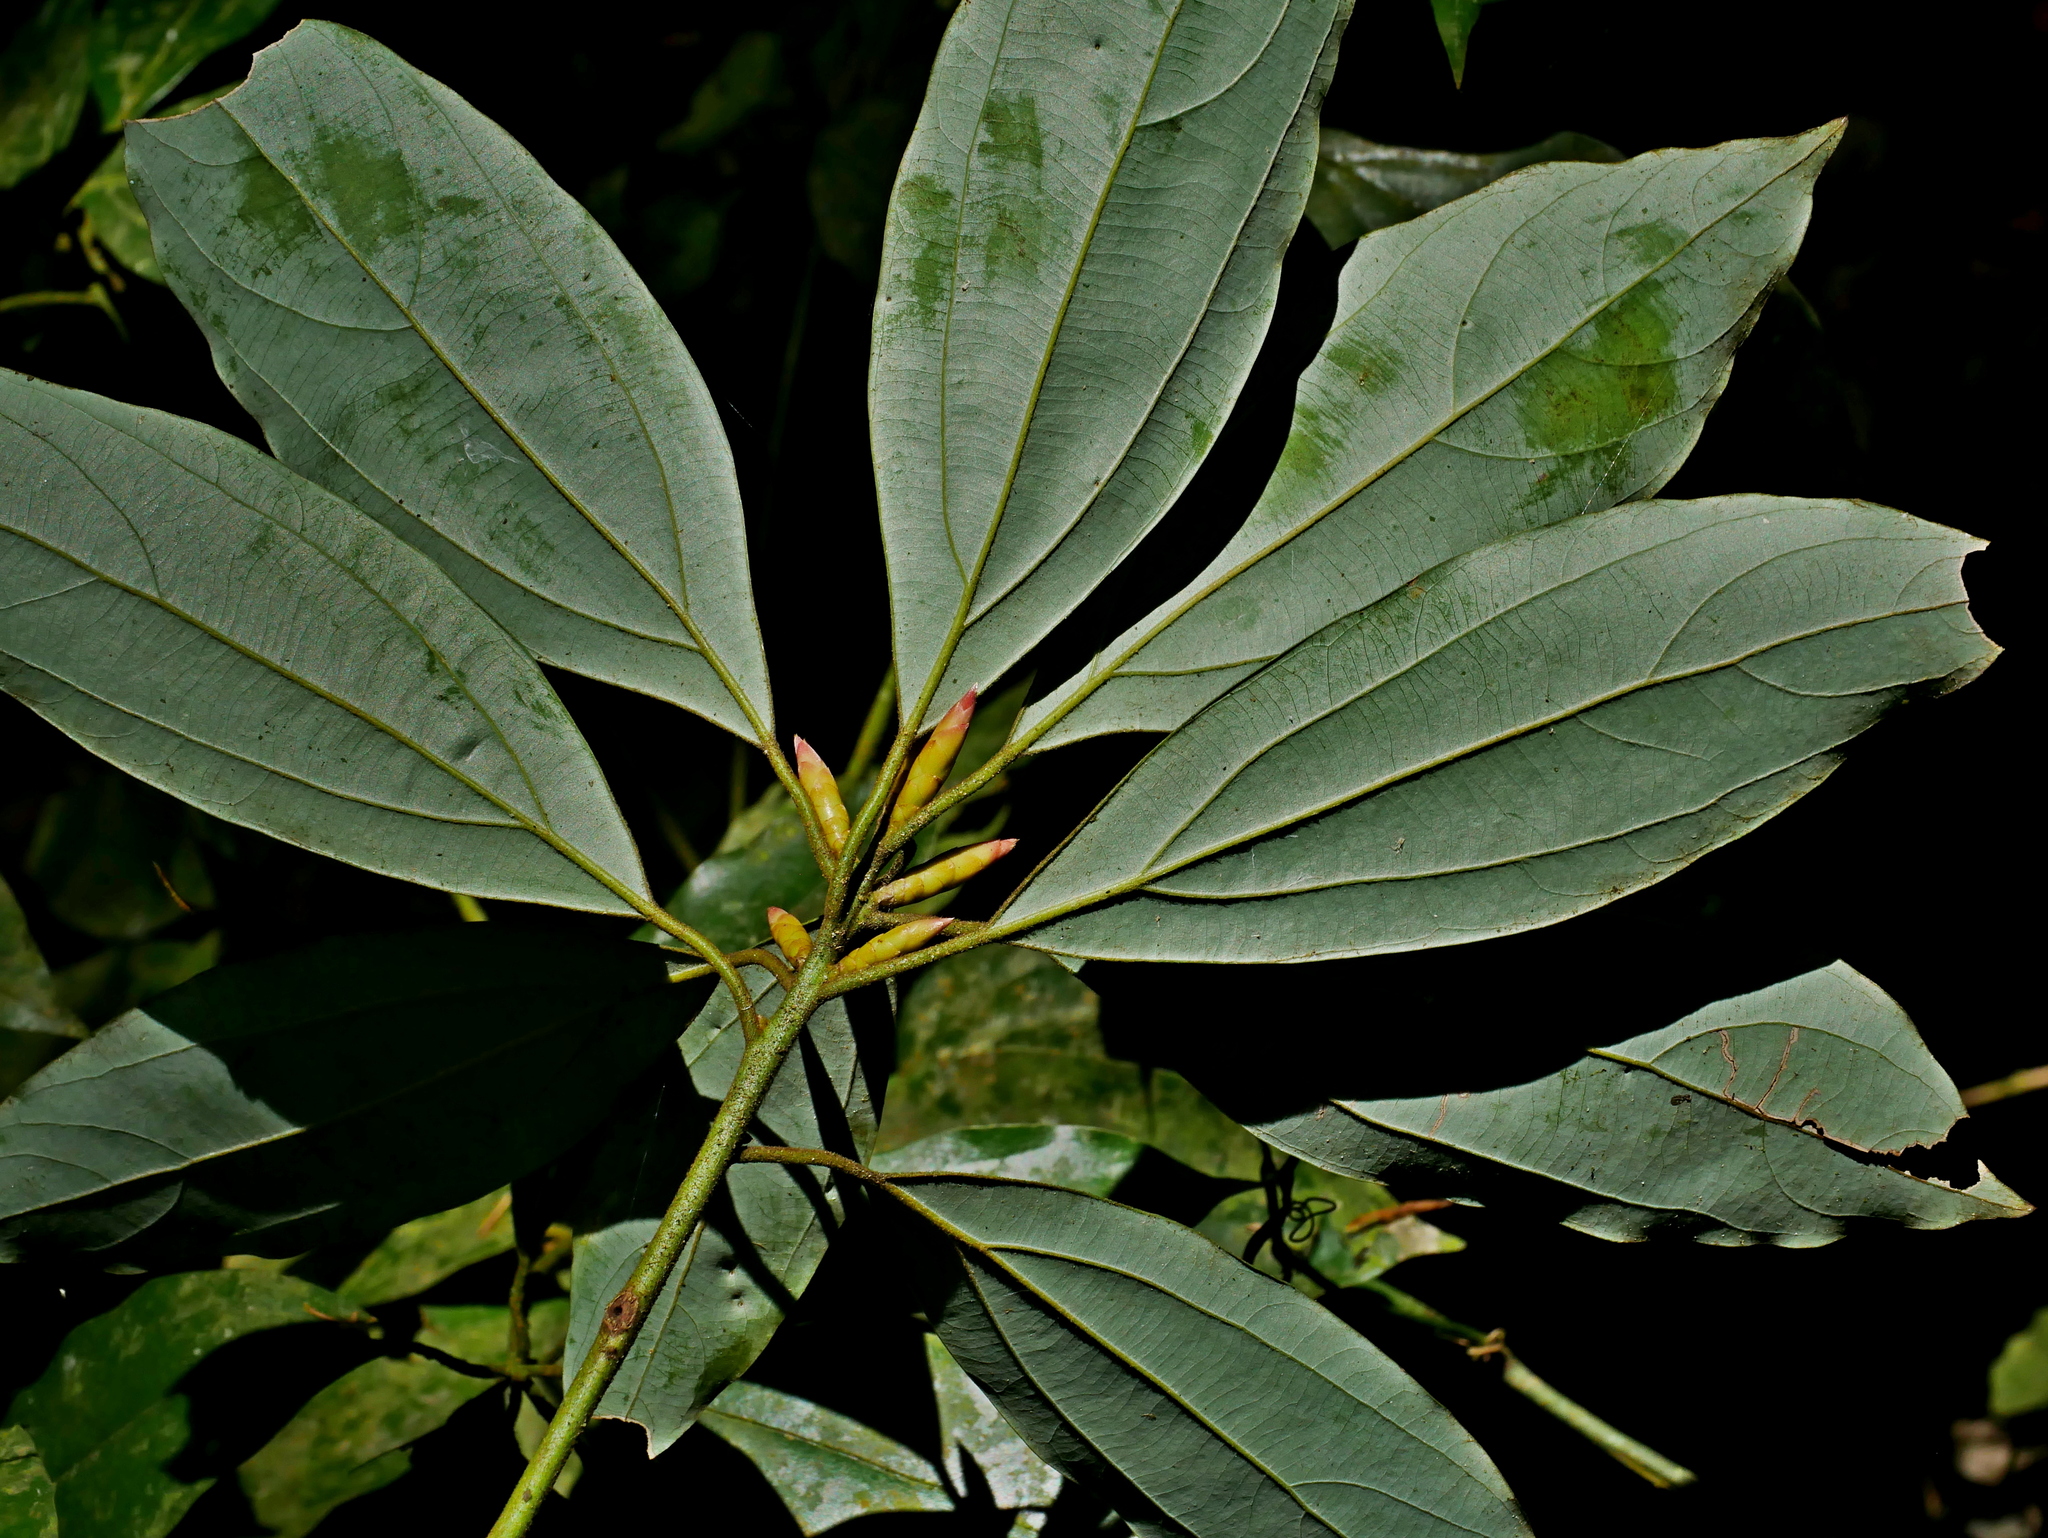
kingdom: Plantae
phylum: Tracheophyta
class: Magnoliopsida
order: Laurales
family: Lauraceae
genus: Neolitsea
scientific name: Neolitsea aciculata
